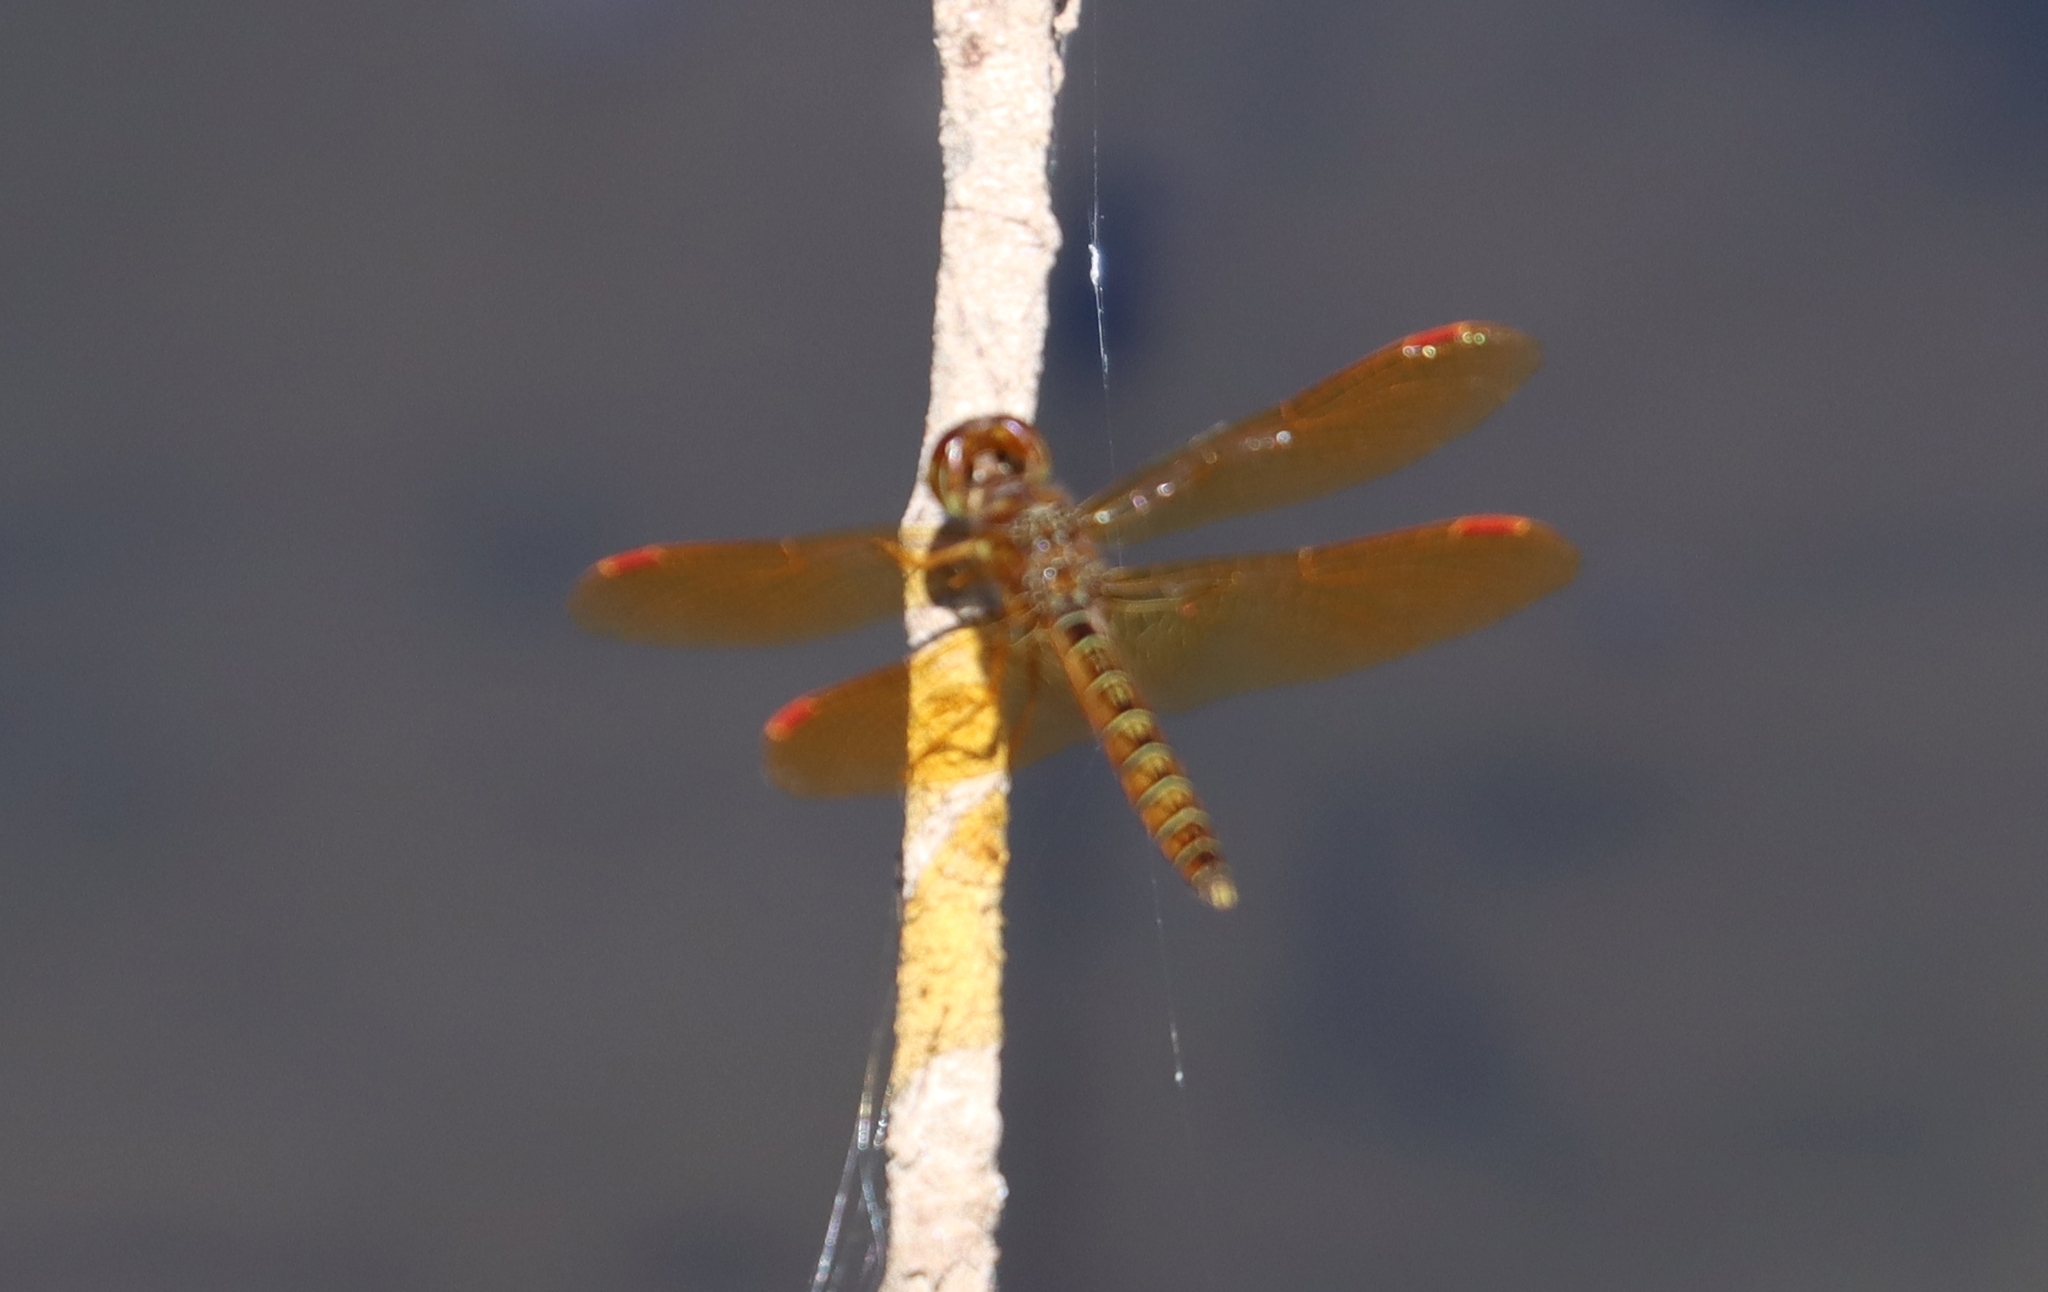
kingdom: Animalia
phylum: Arthropoda
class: Insecta
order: Odonata
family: Libellulidae
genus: Perithemis
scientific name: Perithemis tenera
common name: Eastern amberwing
